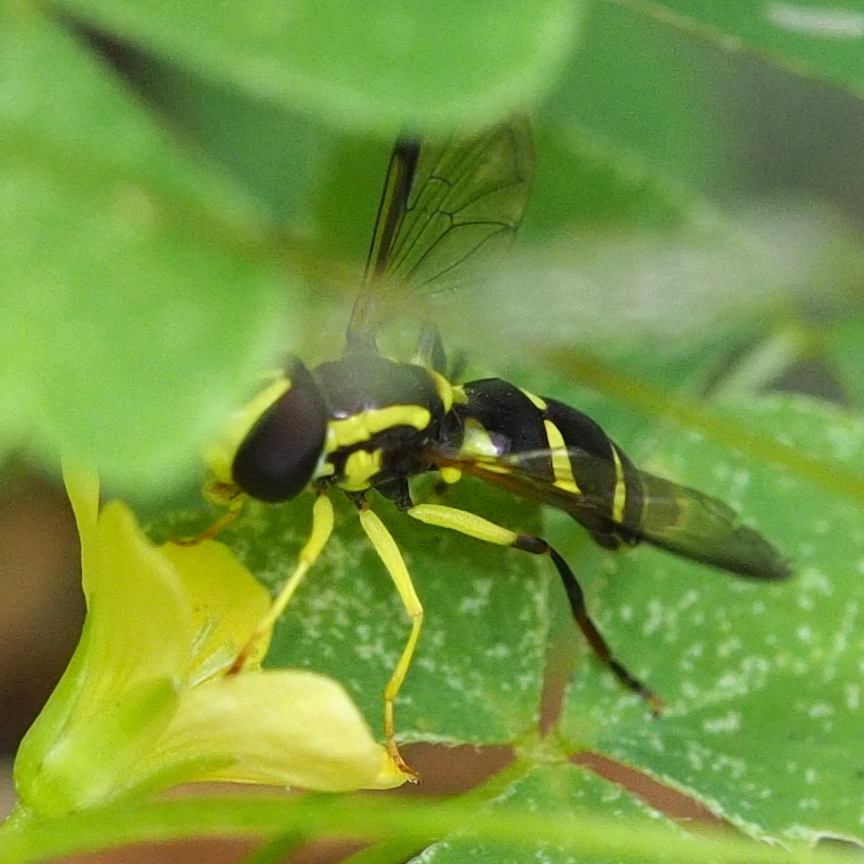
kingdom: Animalia
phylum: Arthropoda
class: Insecta
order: Diptera
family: Syrphidae
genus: Philhelius
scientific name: Philhelius dives
